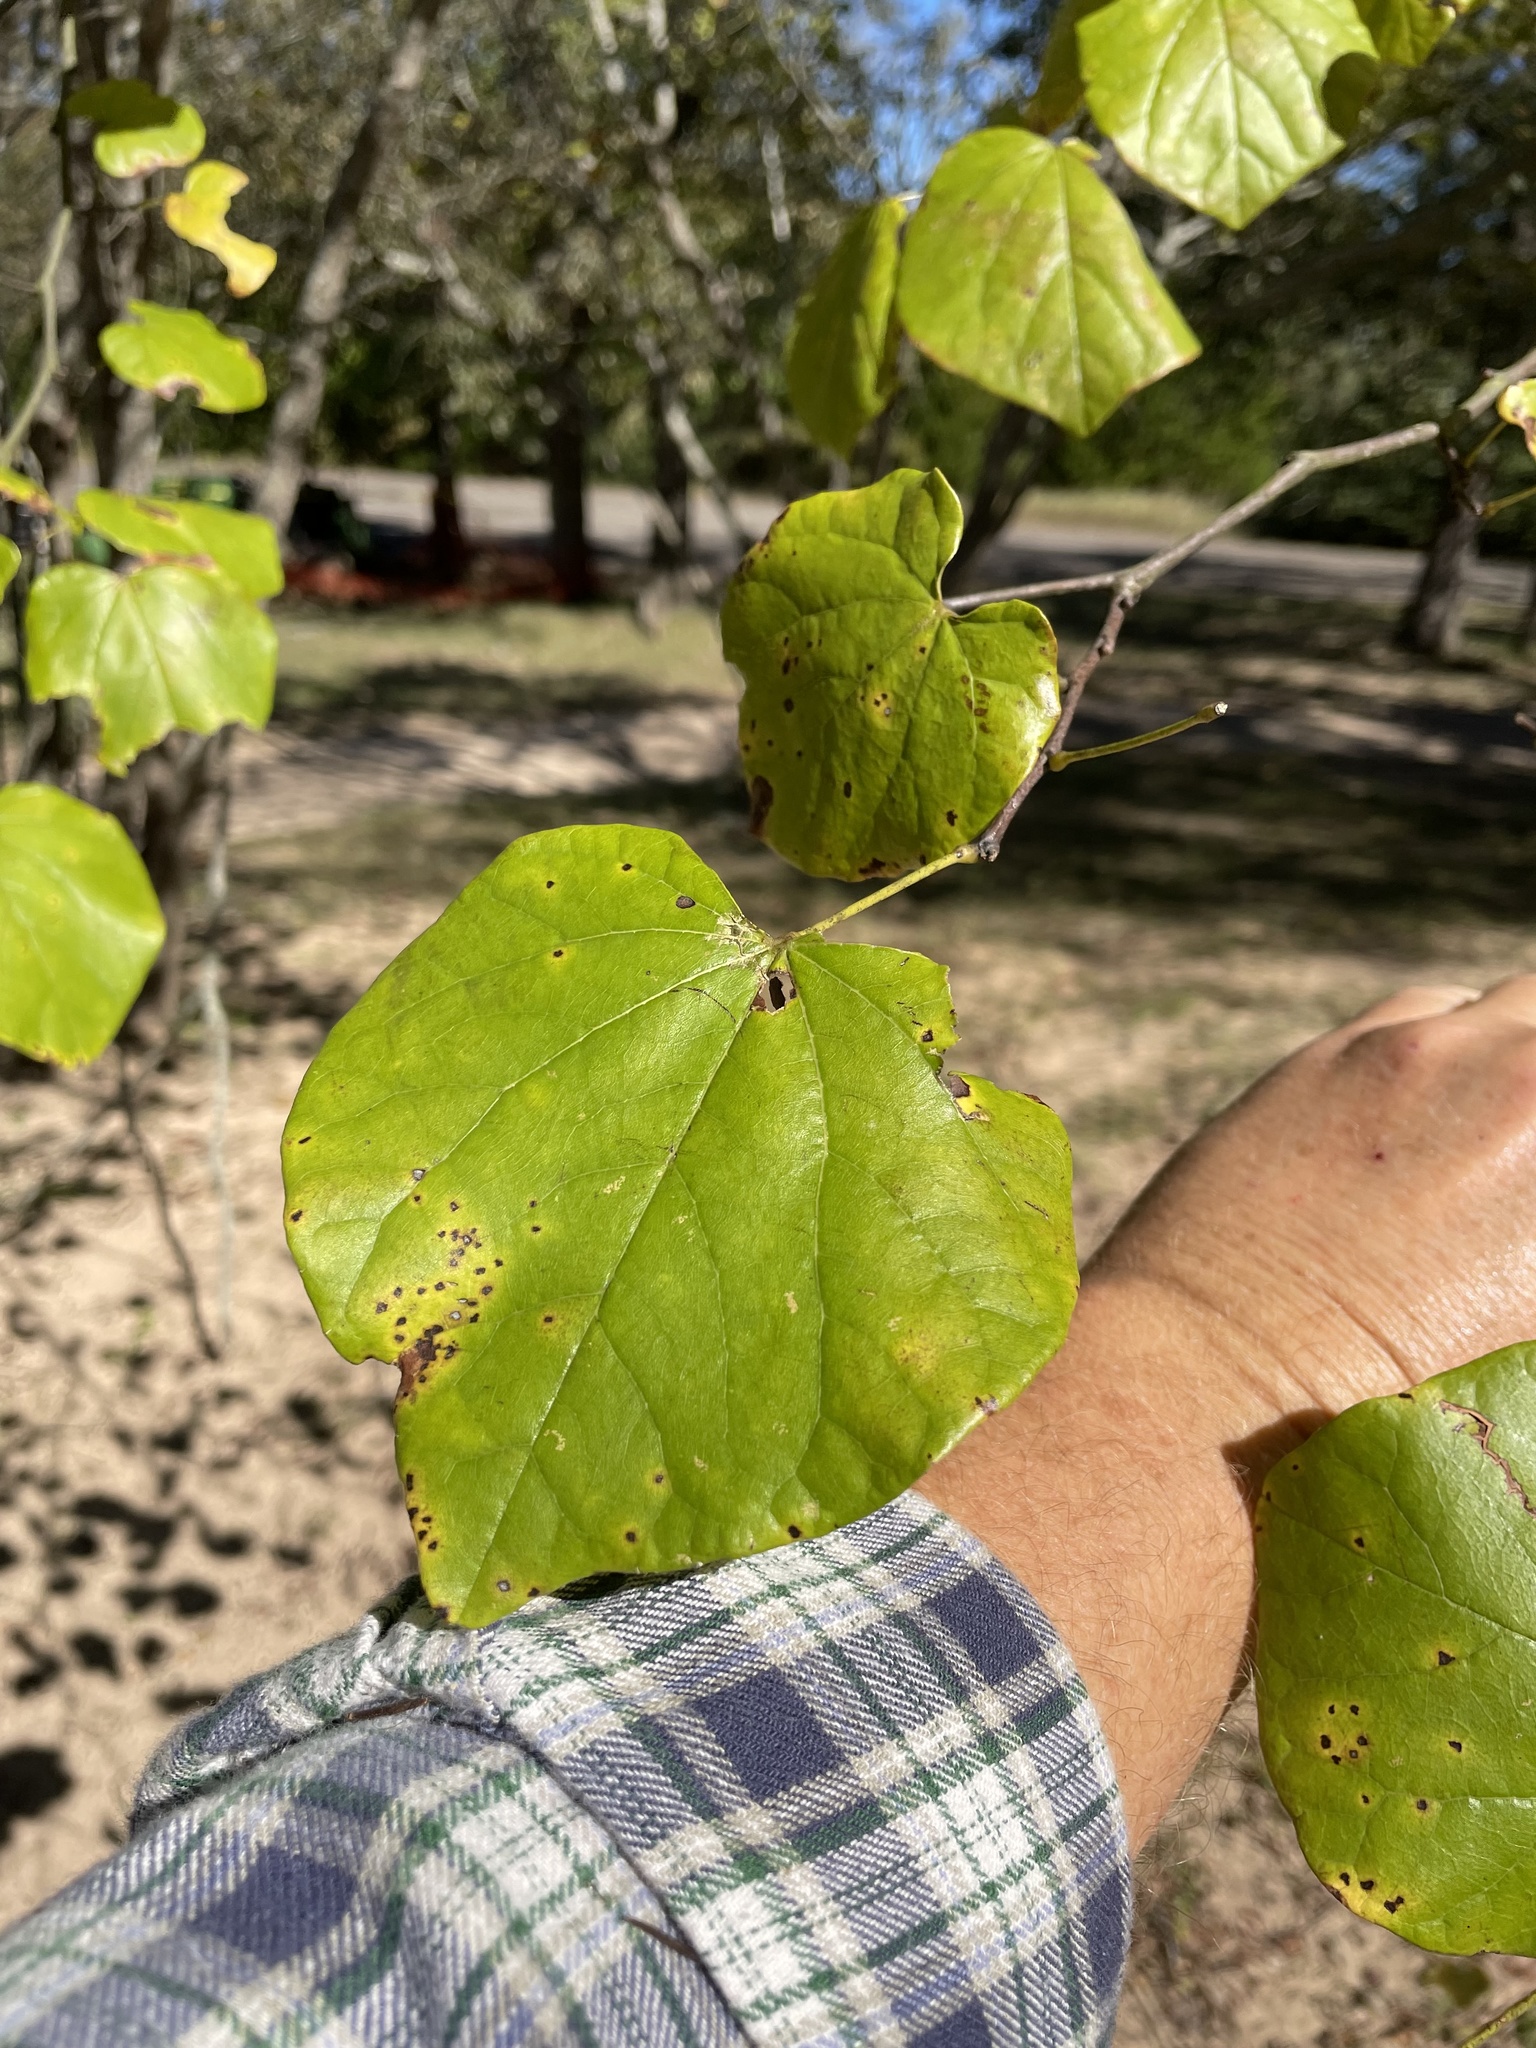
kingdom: Plantae
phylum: Tracheophyta
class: Magnoliopsida
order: Fabales
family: Fabaceae
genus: Cercis
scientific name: Cercis canadensis
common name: Eastern redbud
